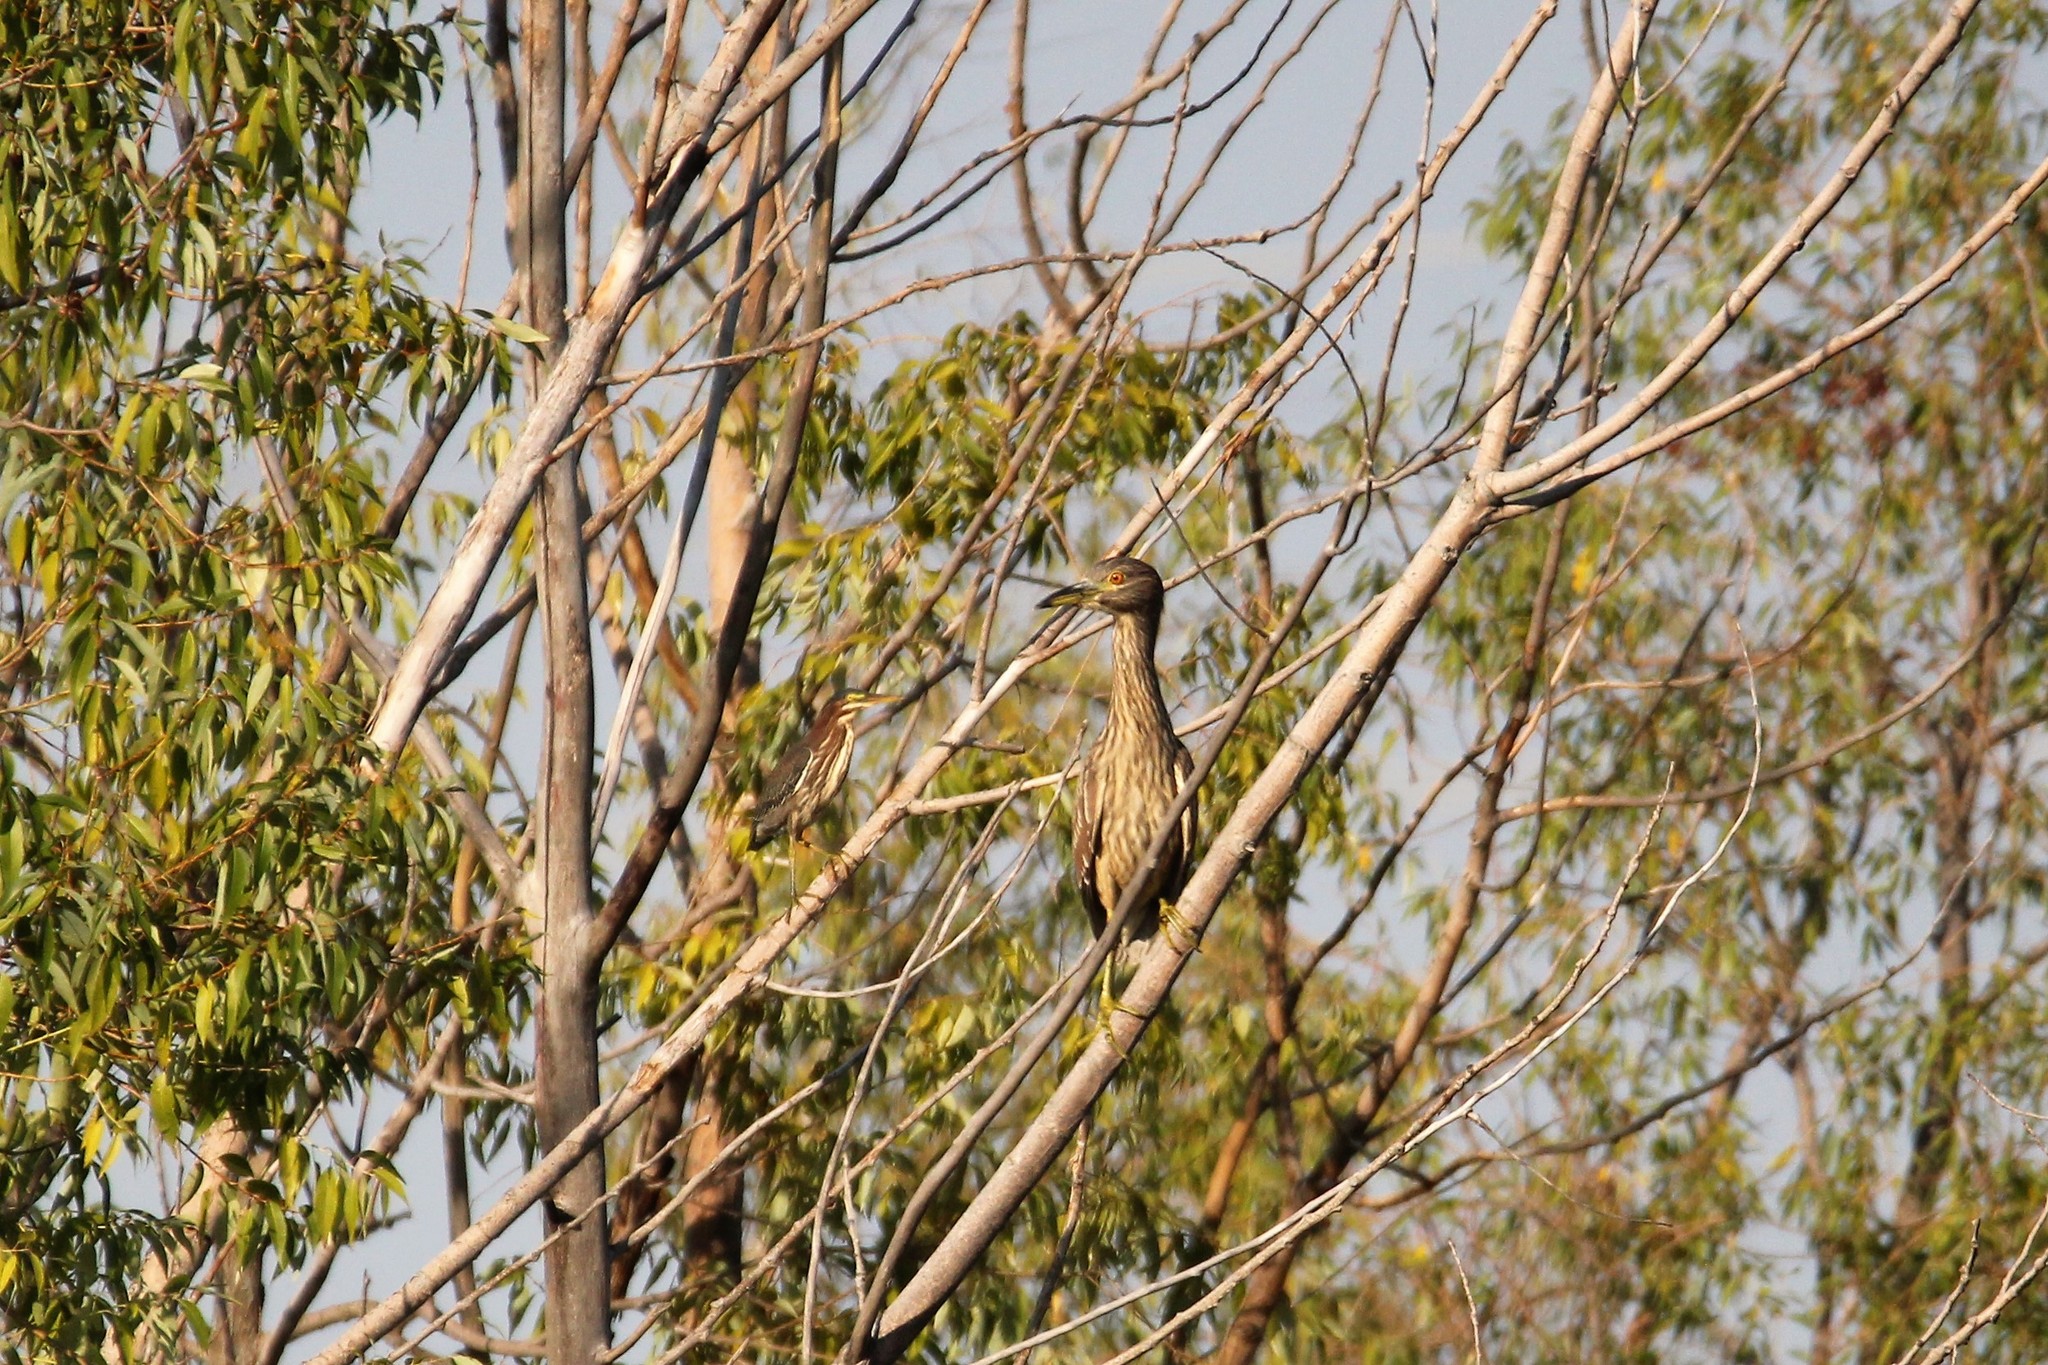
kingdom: Animalia
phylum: Chordata
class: Aves
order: Pelecaniformes
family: Ardeidae
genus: Nycticorax
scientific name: Nycticorax nycticorax
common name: Black-crowned night heron
